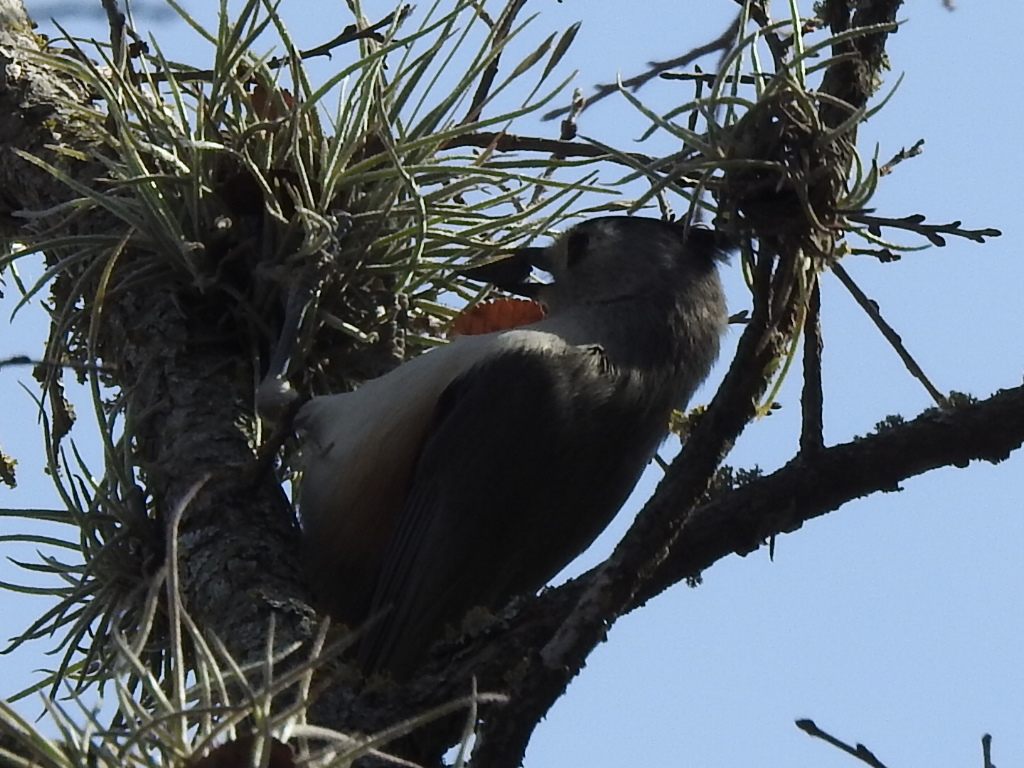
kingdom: Animalia
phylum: Chordata
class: Aves
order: Passeriformes
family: Paridae
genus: Baeolophus
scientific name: Baeolophus atricristatus
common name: Black-crested titmouse
